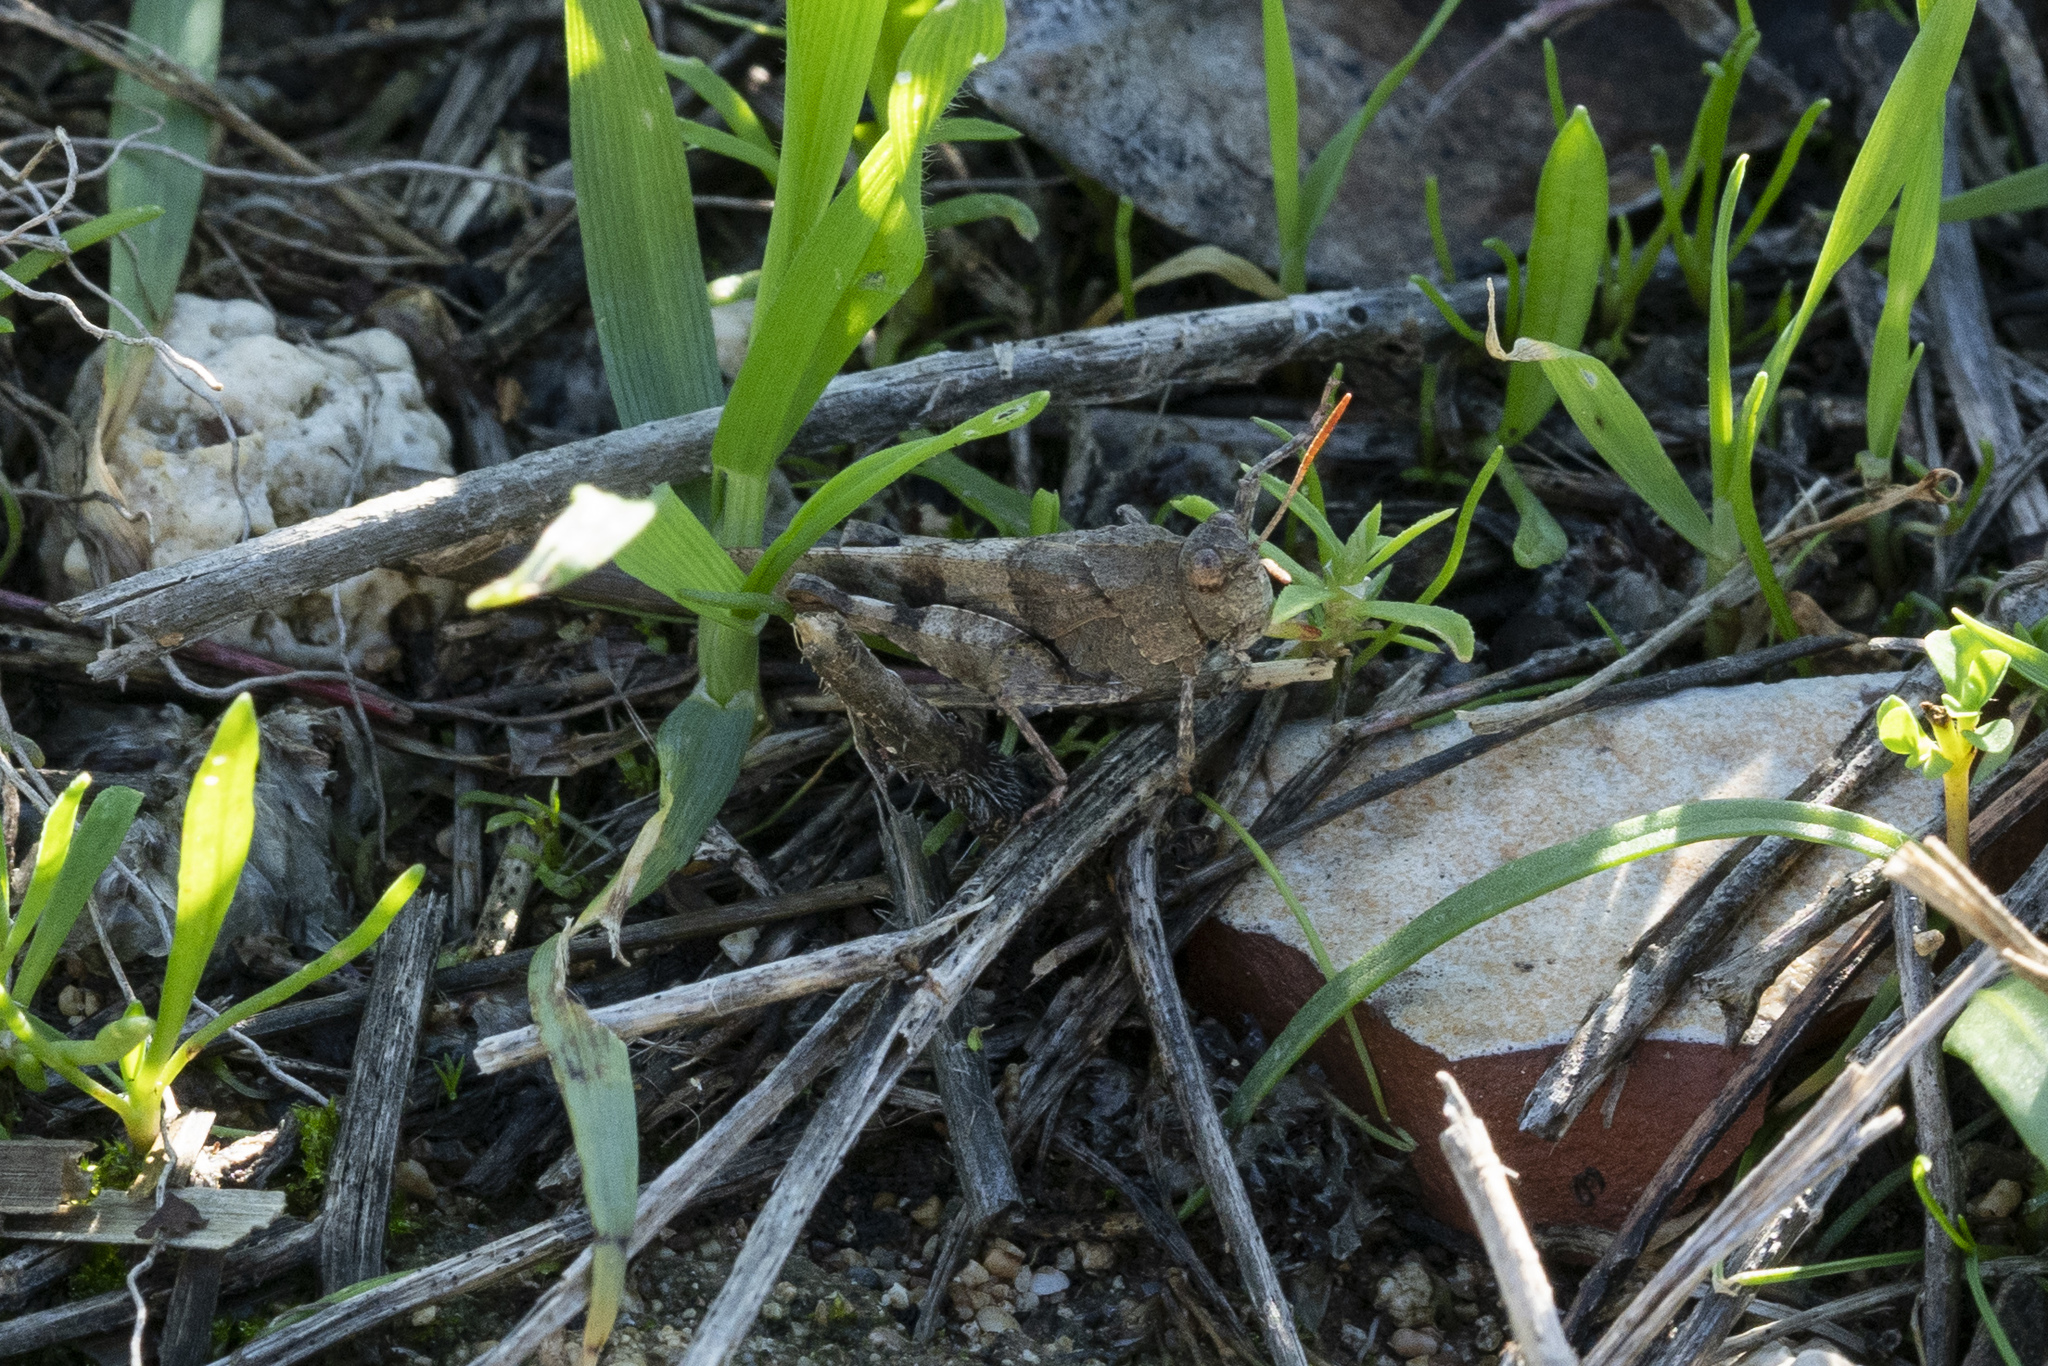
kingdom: Animalia
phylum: Arthropoda
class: Insecta
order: Orthoptera
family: Acrididae
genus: Oedipoda
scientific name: Oedipoda
